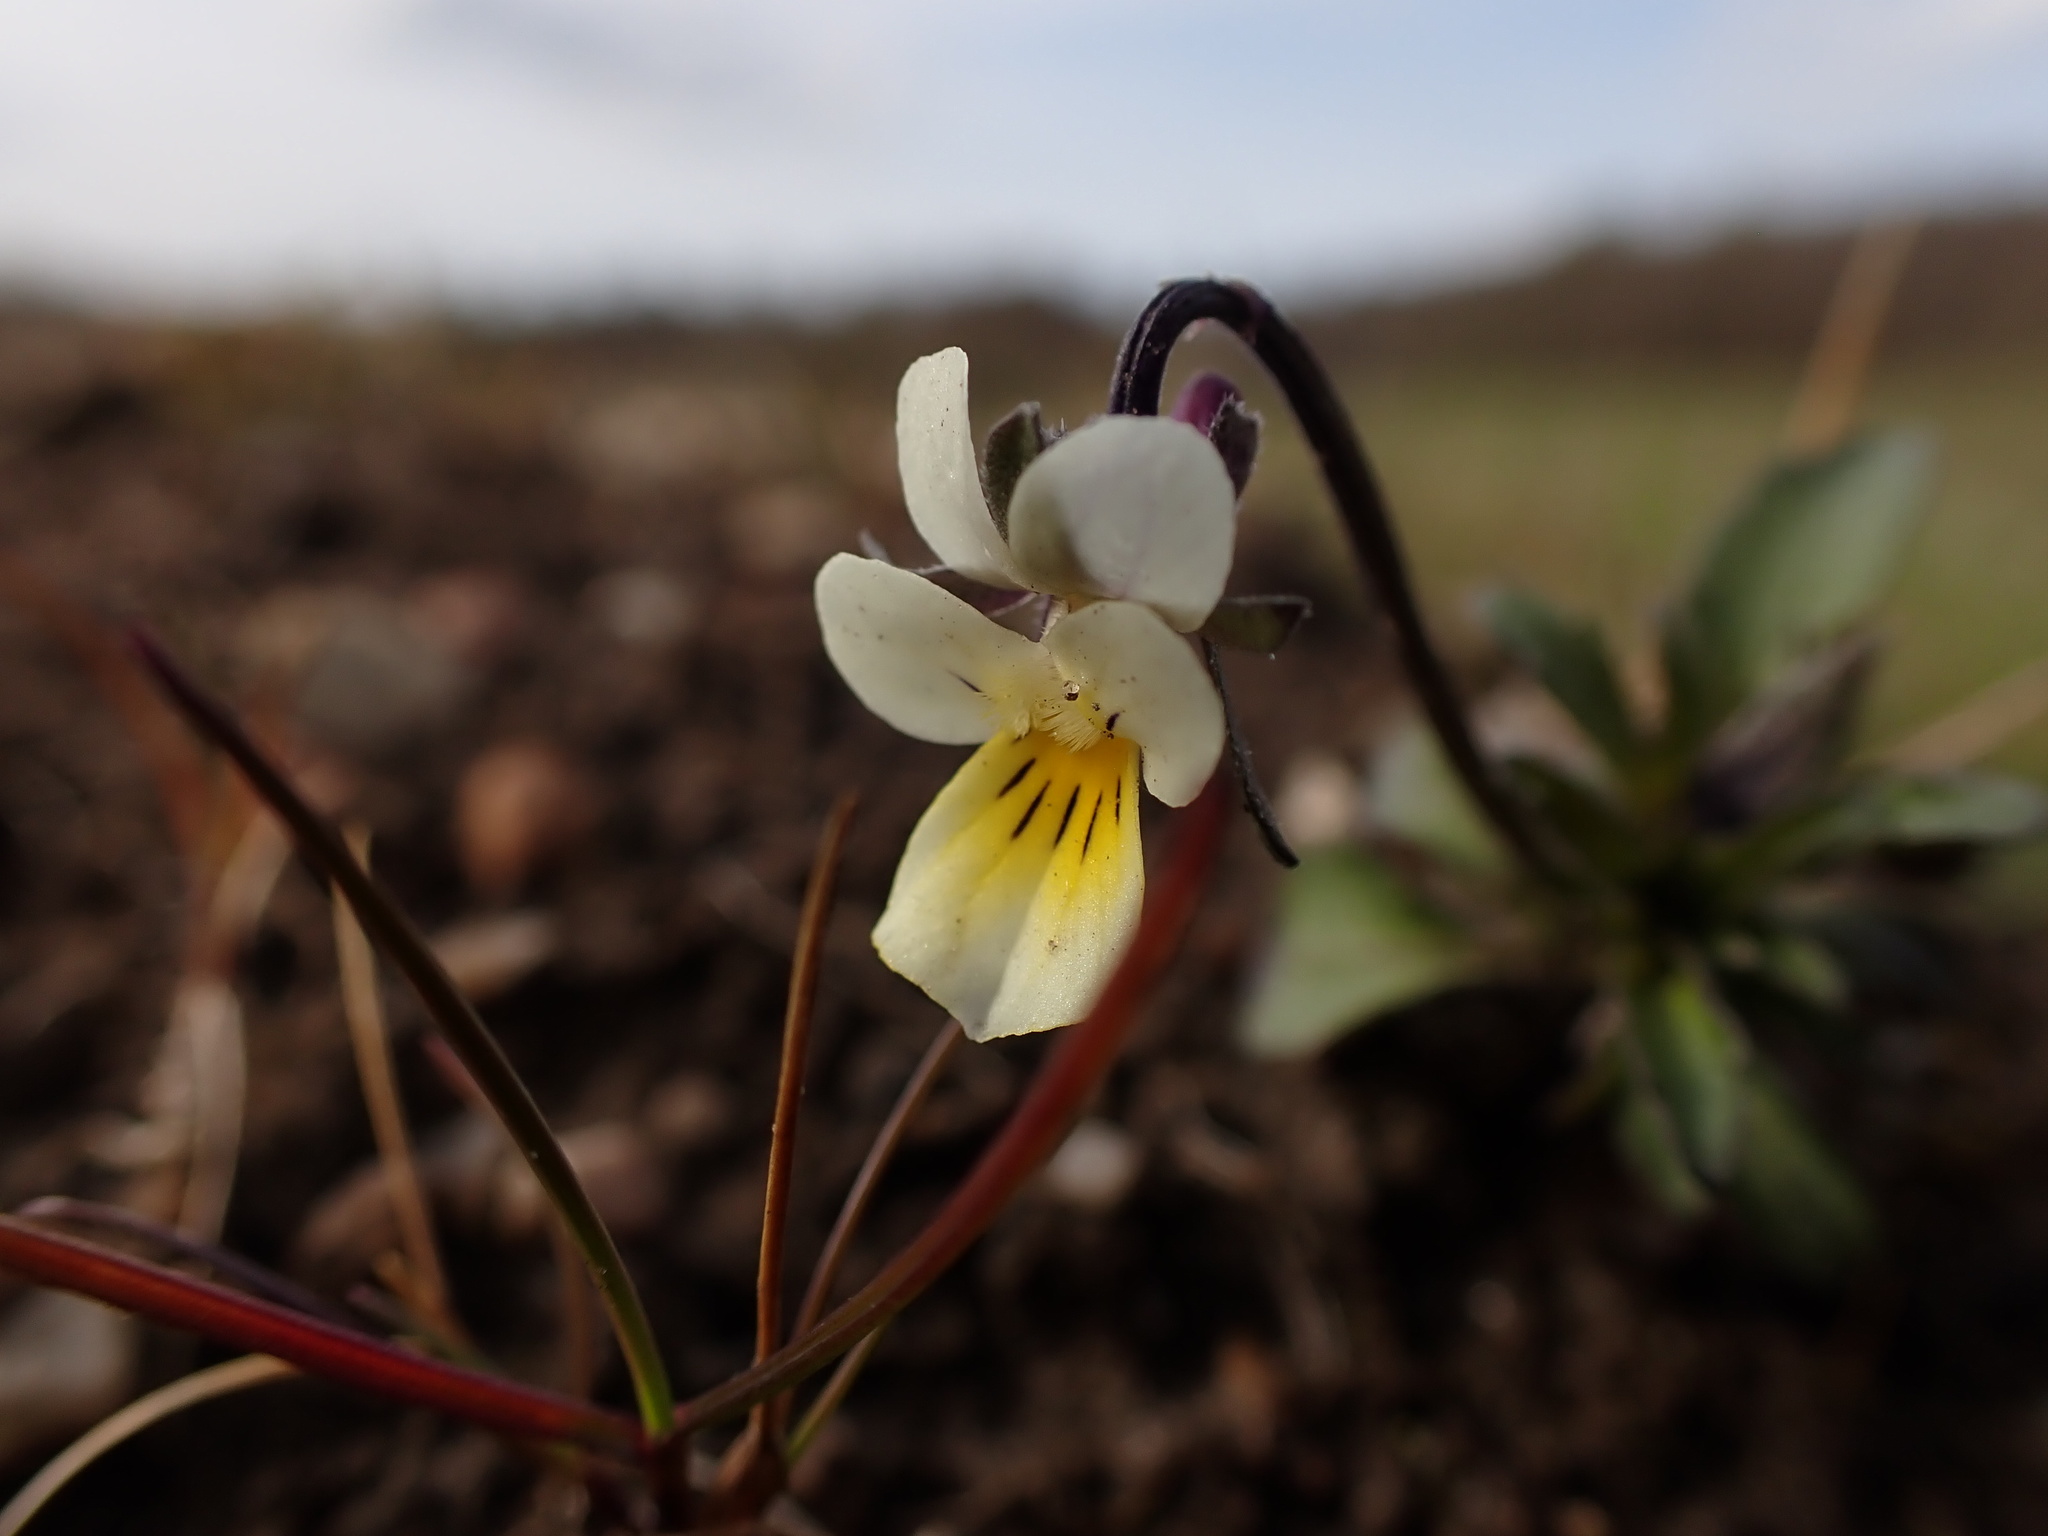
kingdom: Plantae
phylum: Tracheophyta
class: Magnoliopsida
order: Malpighiales
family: Violaceae
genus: Viola
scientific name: Viola arvensis
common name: Field pansy
